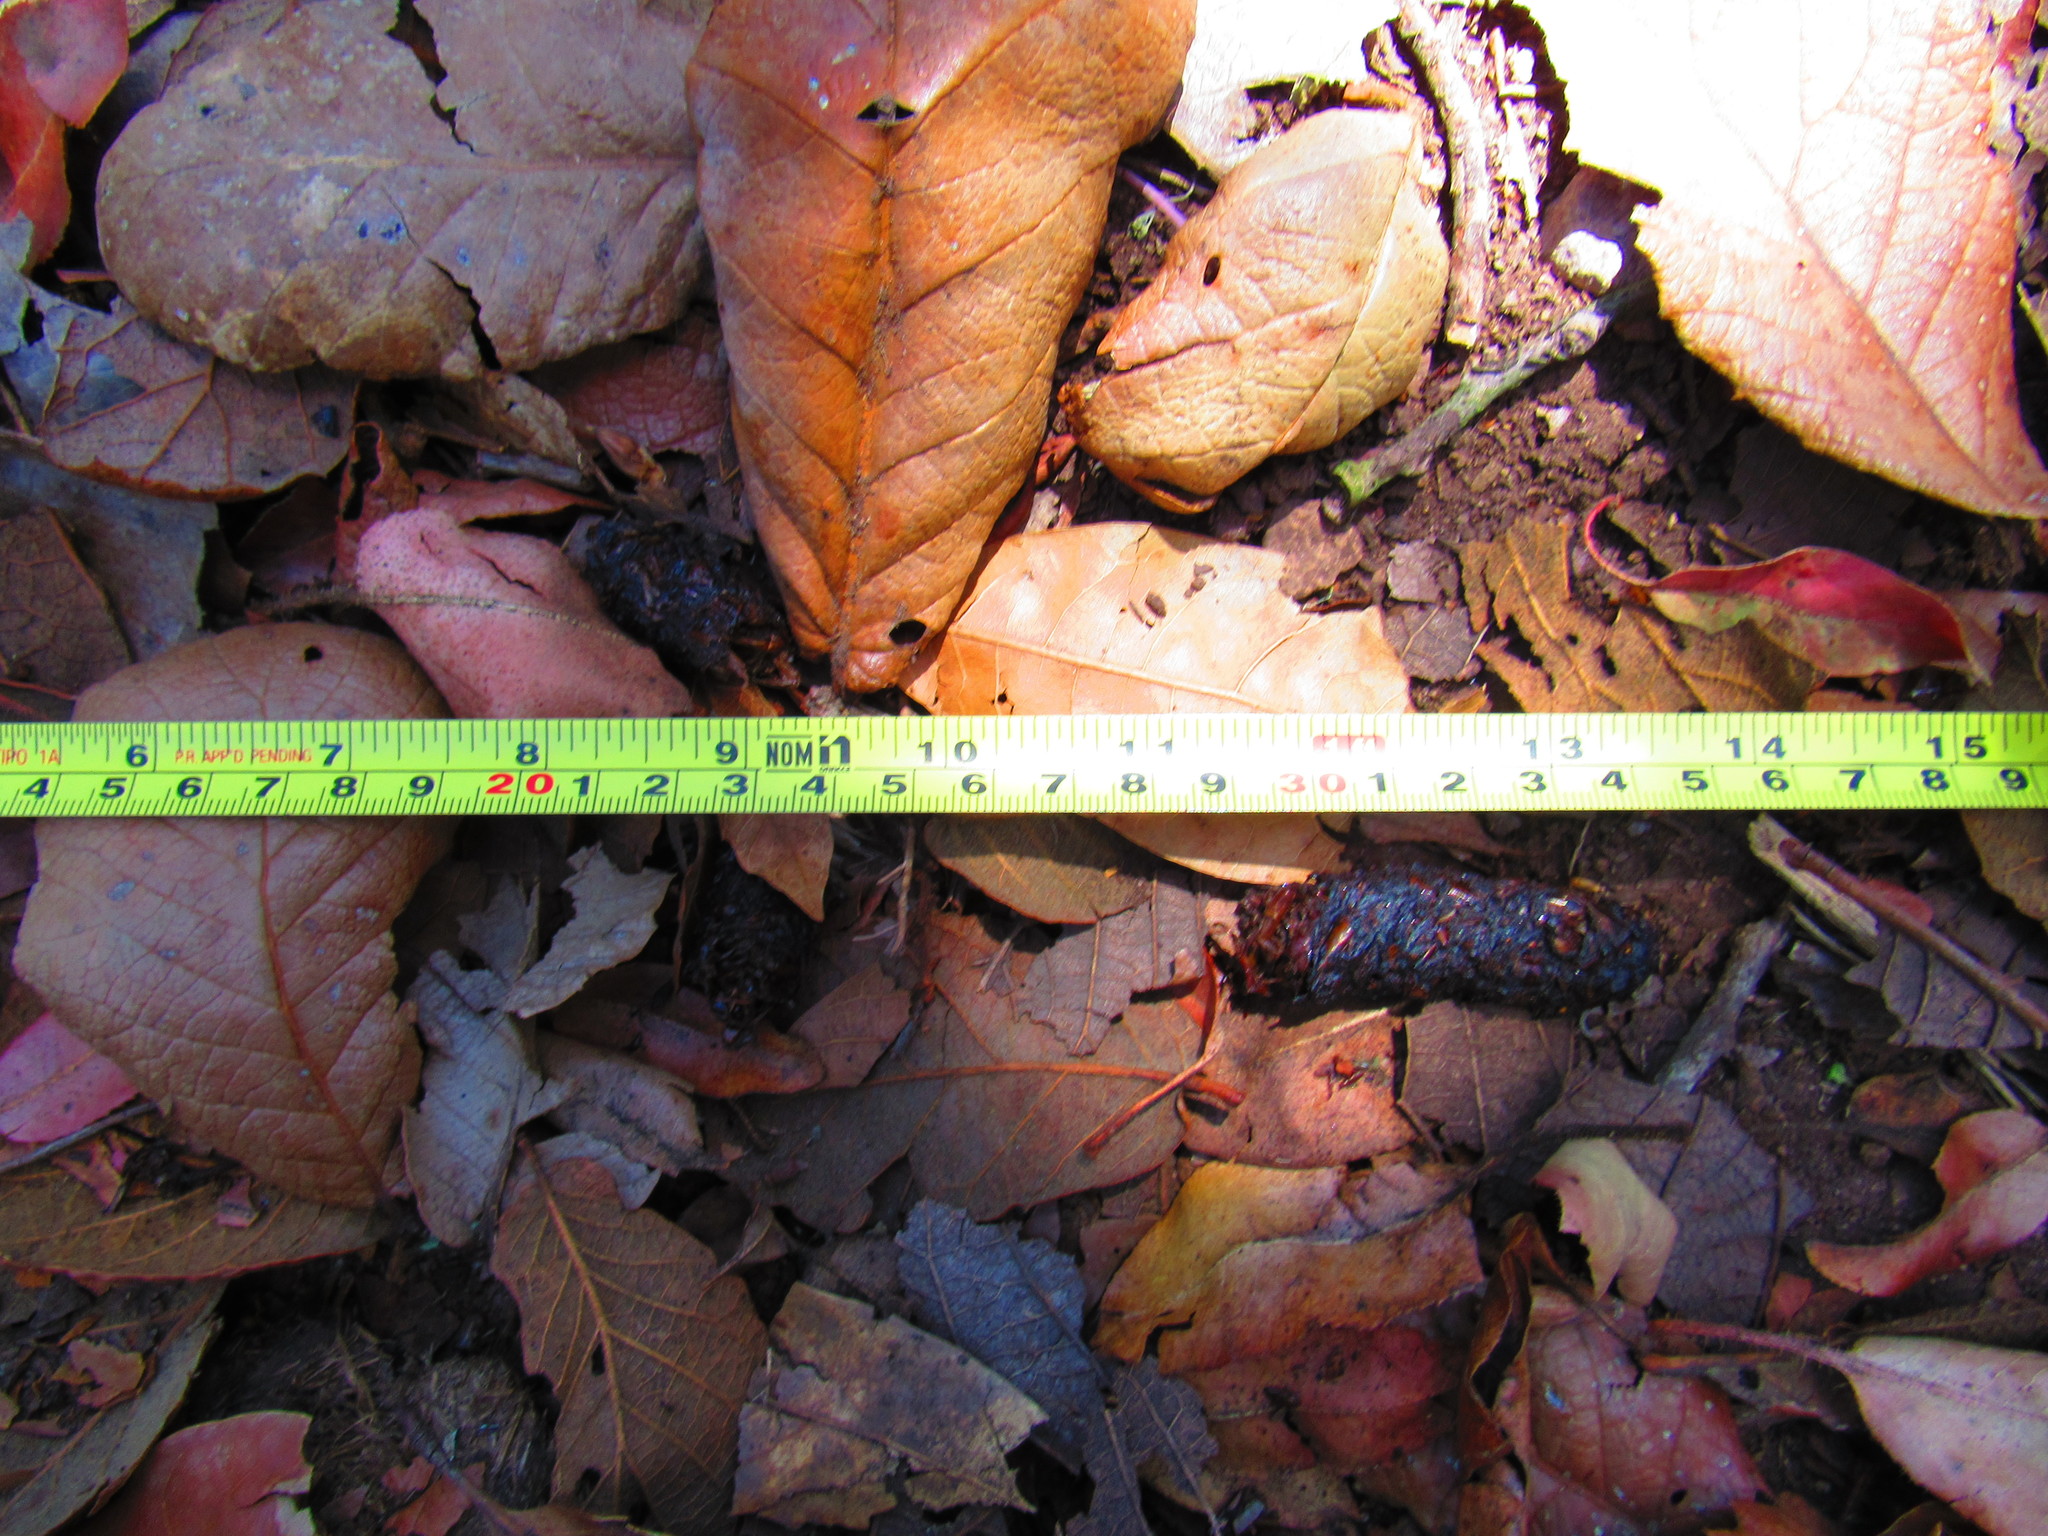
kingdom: Animalia
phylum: Chordata
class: Mammalia
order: Carnivora
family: Canidae
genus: Urocyon
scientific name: Urocyon cinereoargenteus
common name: Gray fox
